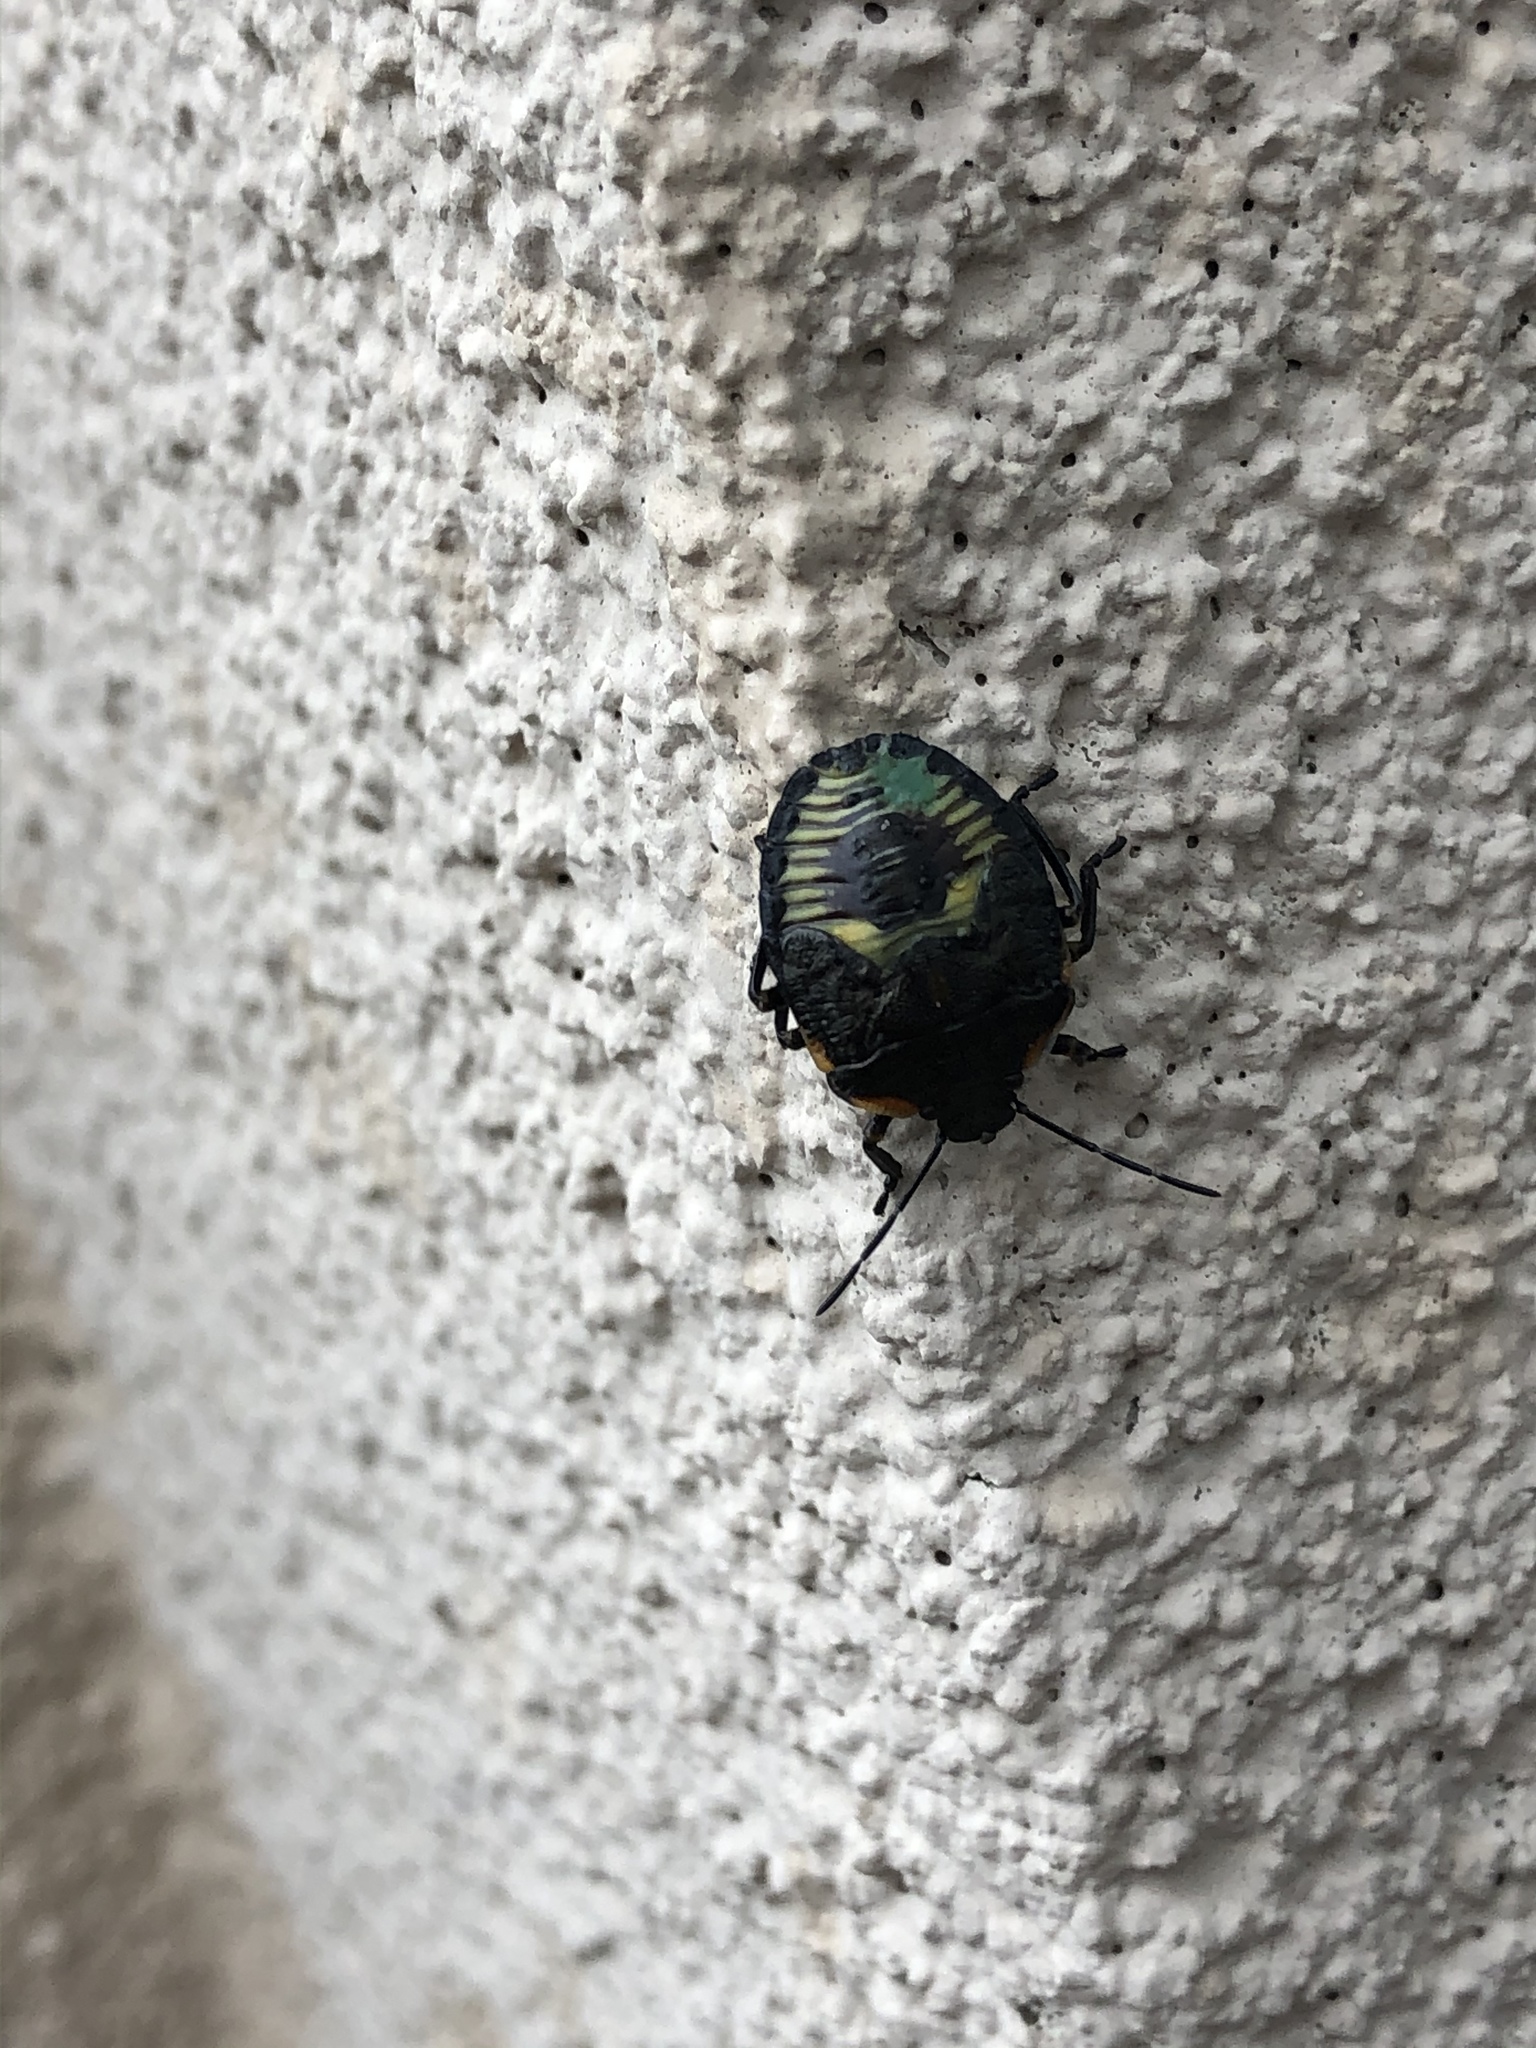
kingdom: Animalia
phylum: Arthropoda
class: Insecta
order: Hemiptera
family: Pentatomidae
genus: Chinavia
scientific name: Chinavia hilaris
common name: Green stink bug
